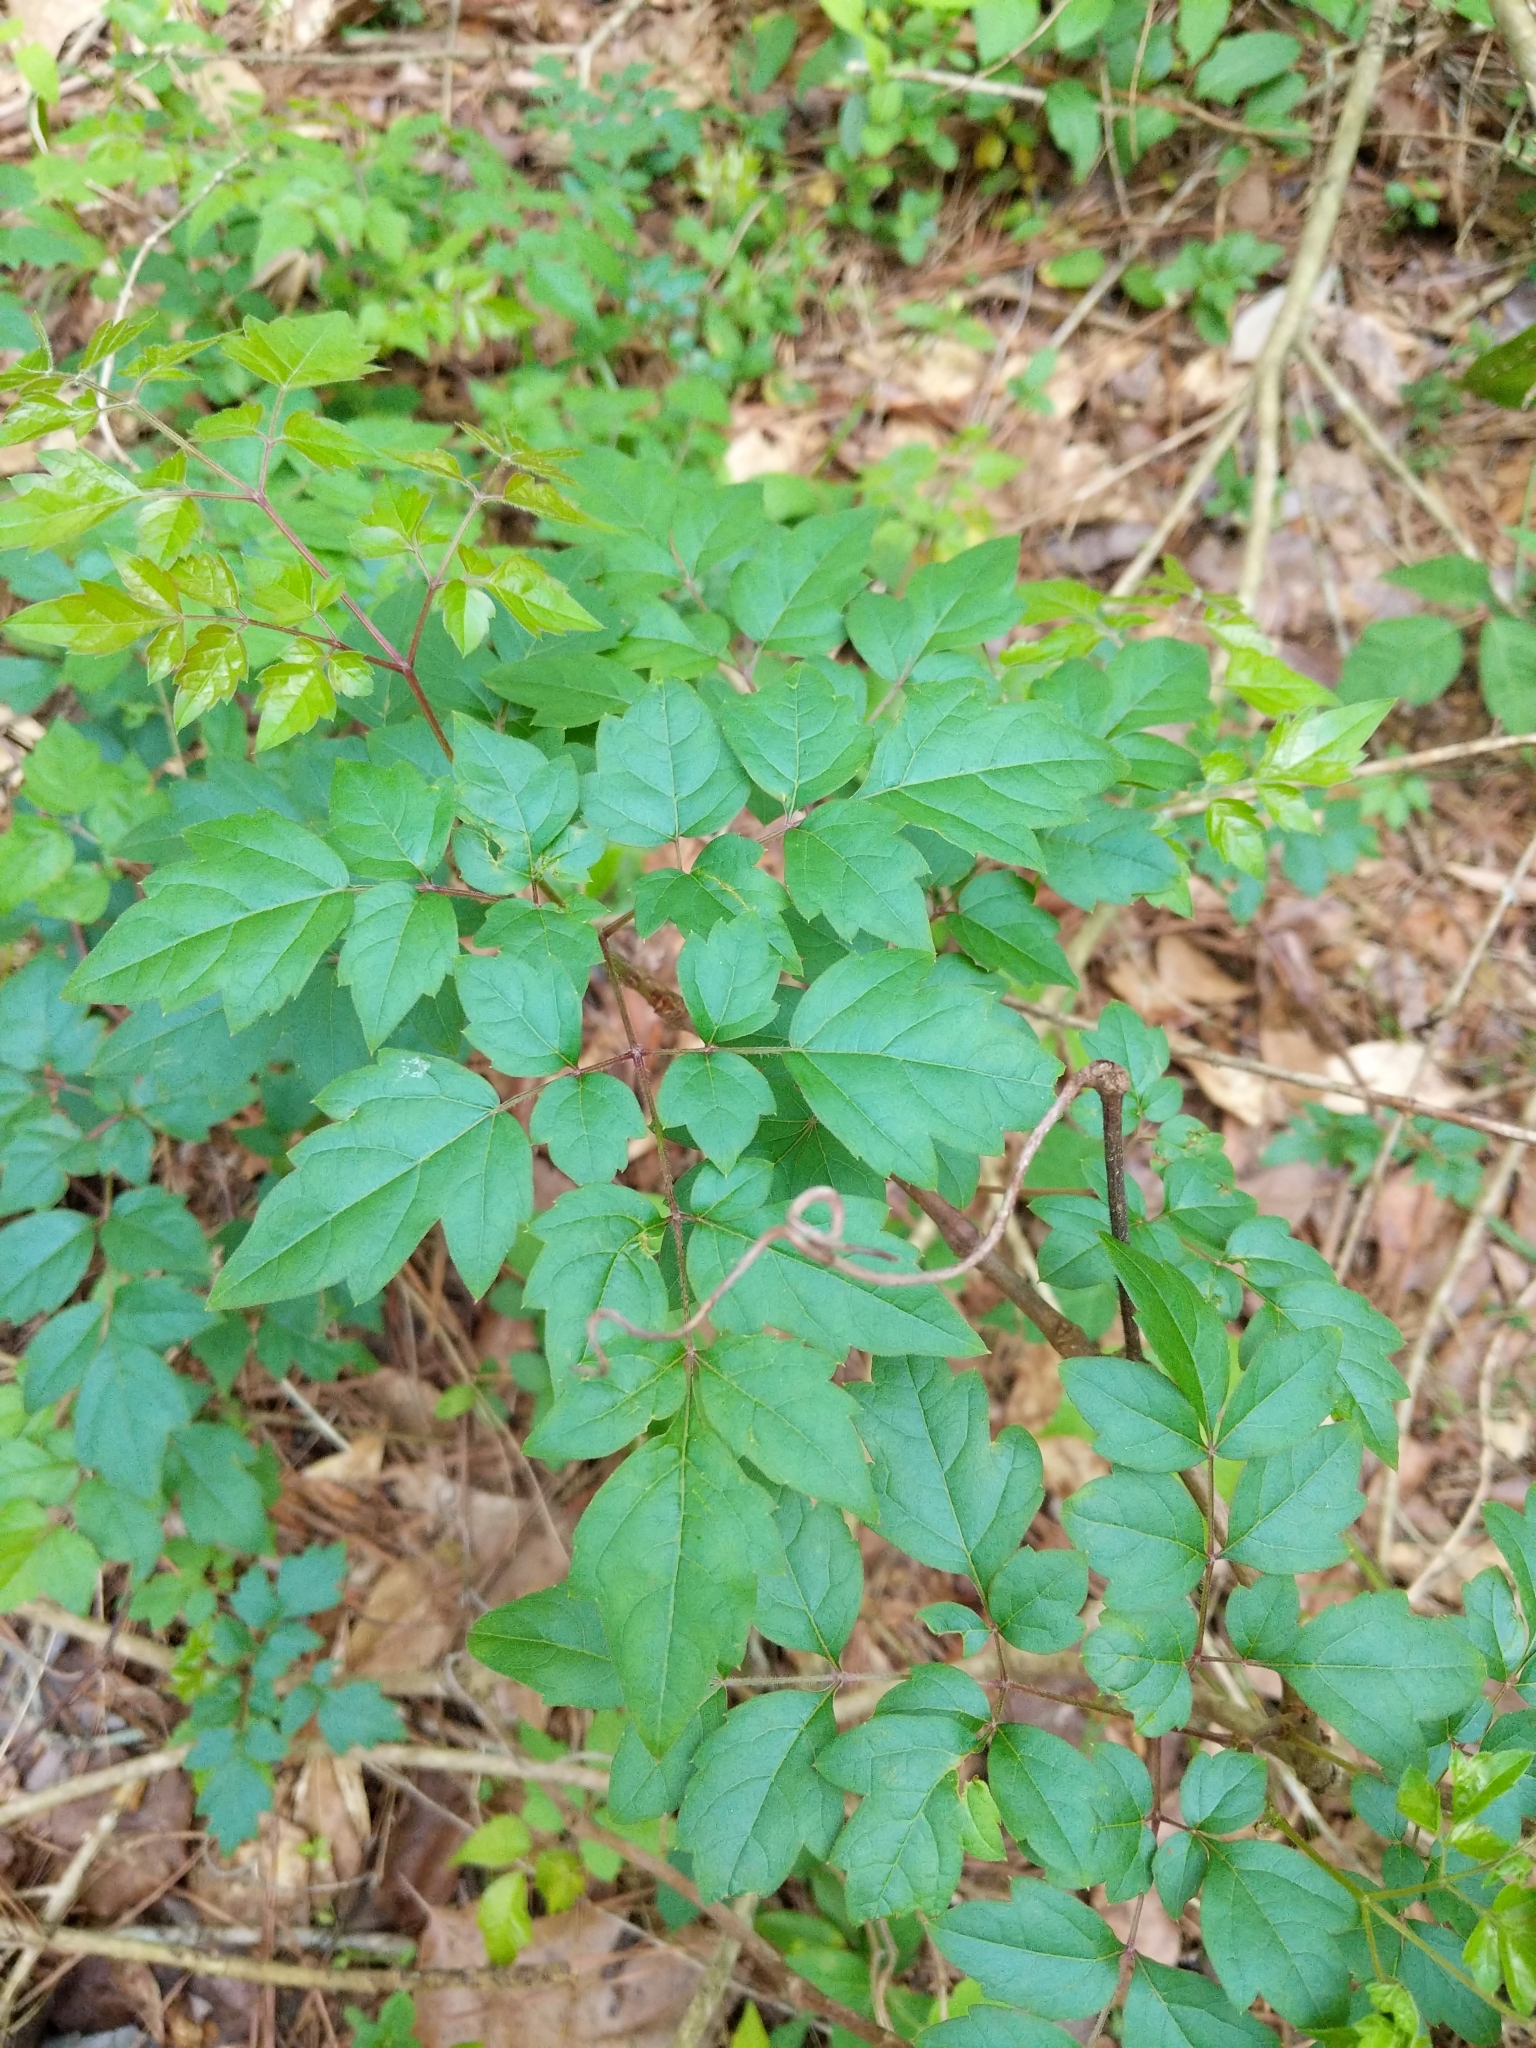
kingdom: Plantae
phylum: Tracheophyta
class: Magnoliopsida
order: Vitales
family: Vitaceae
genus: Nekemias
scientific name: Nekemias arborea
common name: Peppervine
